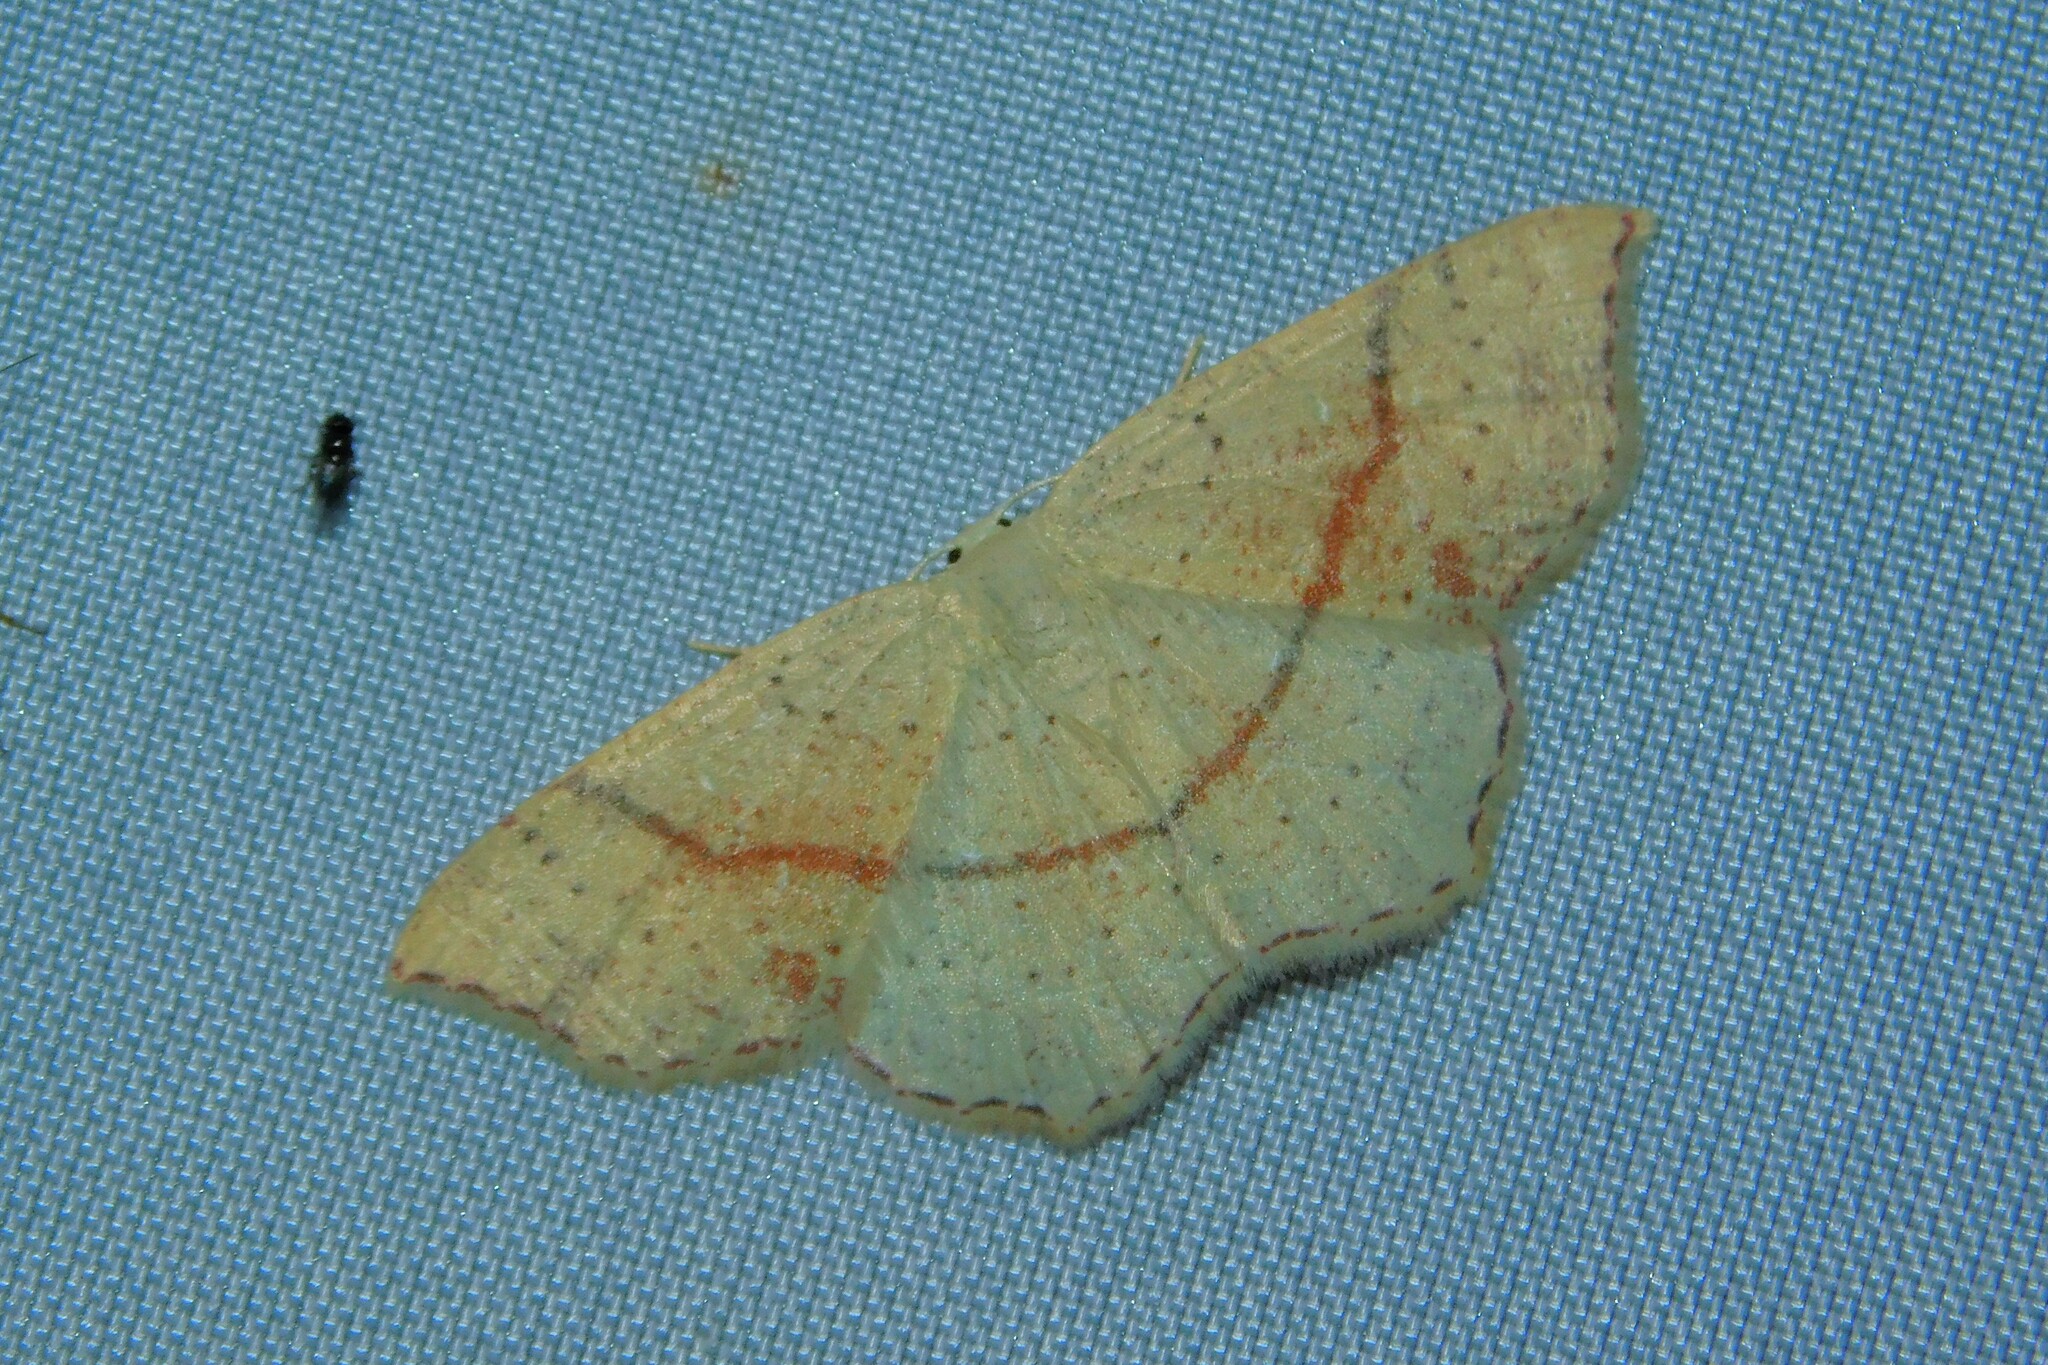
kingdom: Animalia
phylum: Arthropoda
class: Insecta
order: Lepidoptera
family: Geometridae
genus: Cyclophora
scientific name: Cyclophora punctaria
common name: Maiden's blush
